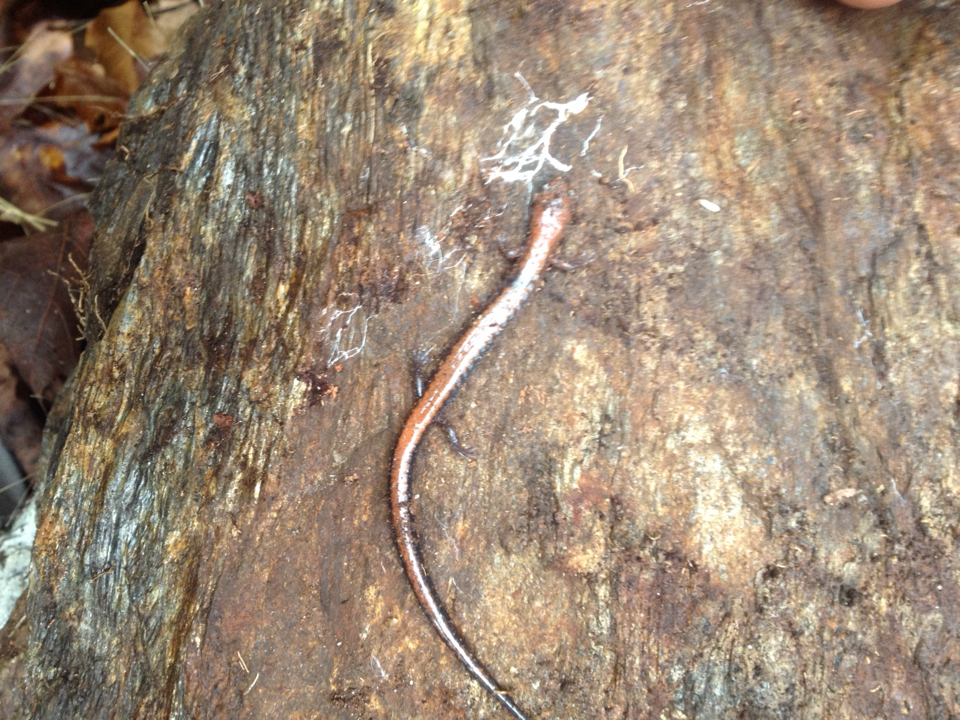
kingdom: Animalia
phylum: Chordata
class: Amphibia
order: Caudata
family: Plethodontidae
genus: Plethodon
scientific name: Plethodon cinereus
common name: Redback salamander
